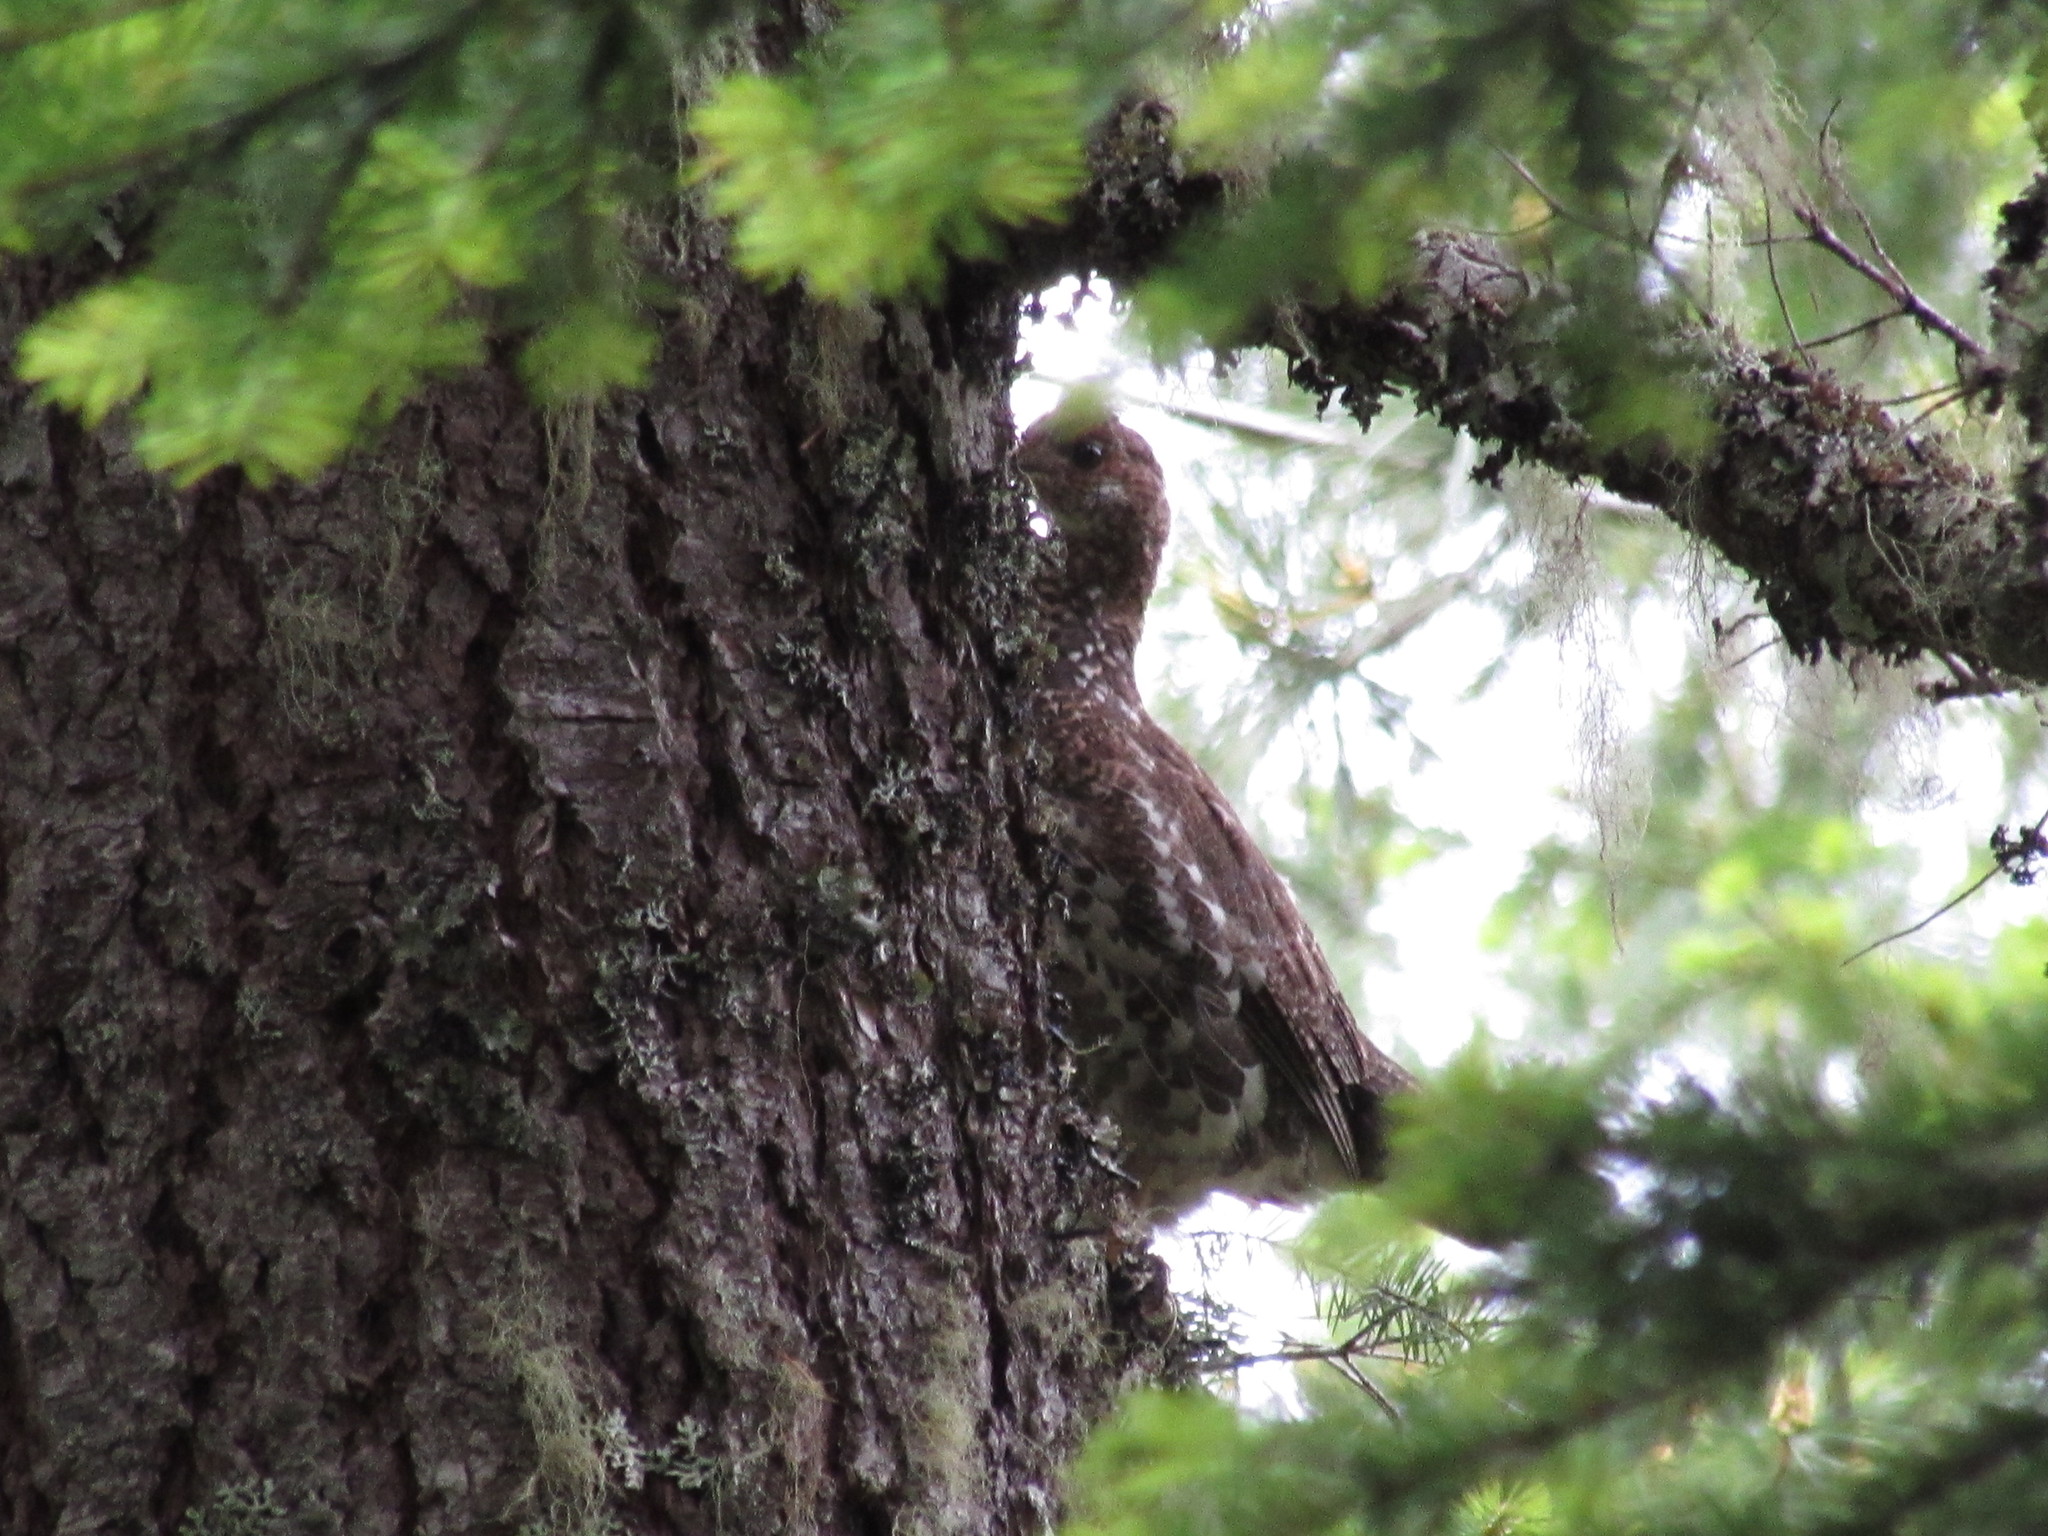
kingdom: Animalia
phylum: Chordata
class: Aves
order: Galliformes
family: Phasianidae
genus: Dendragapus
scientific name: Dendragapus fuliginosus
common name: Sooty grouse
